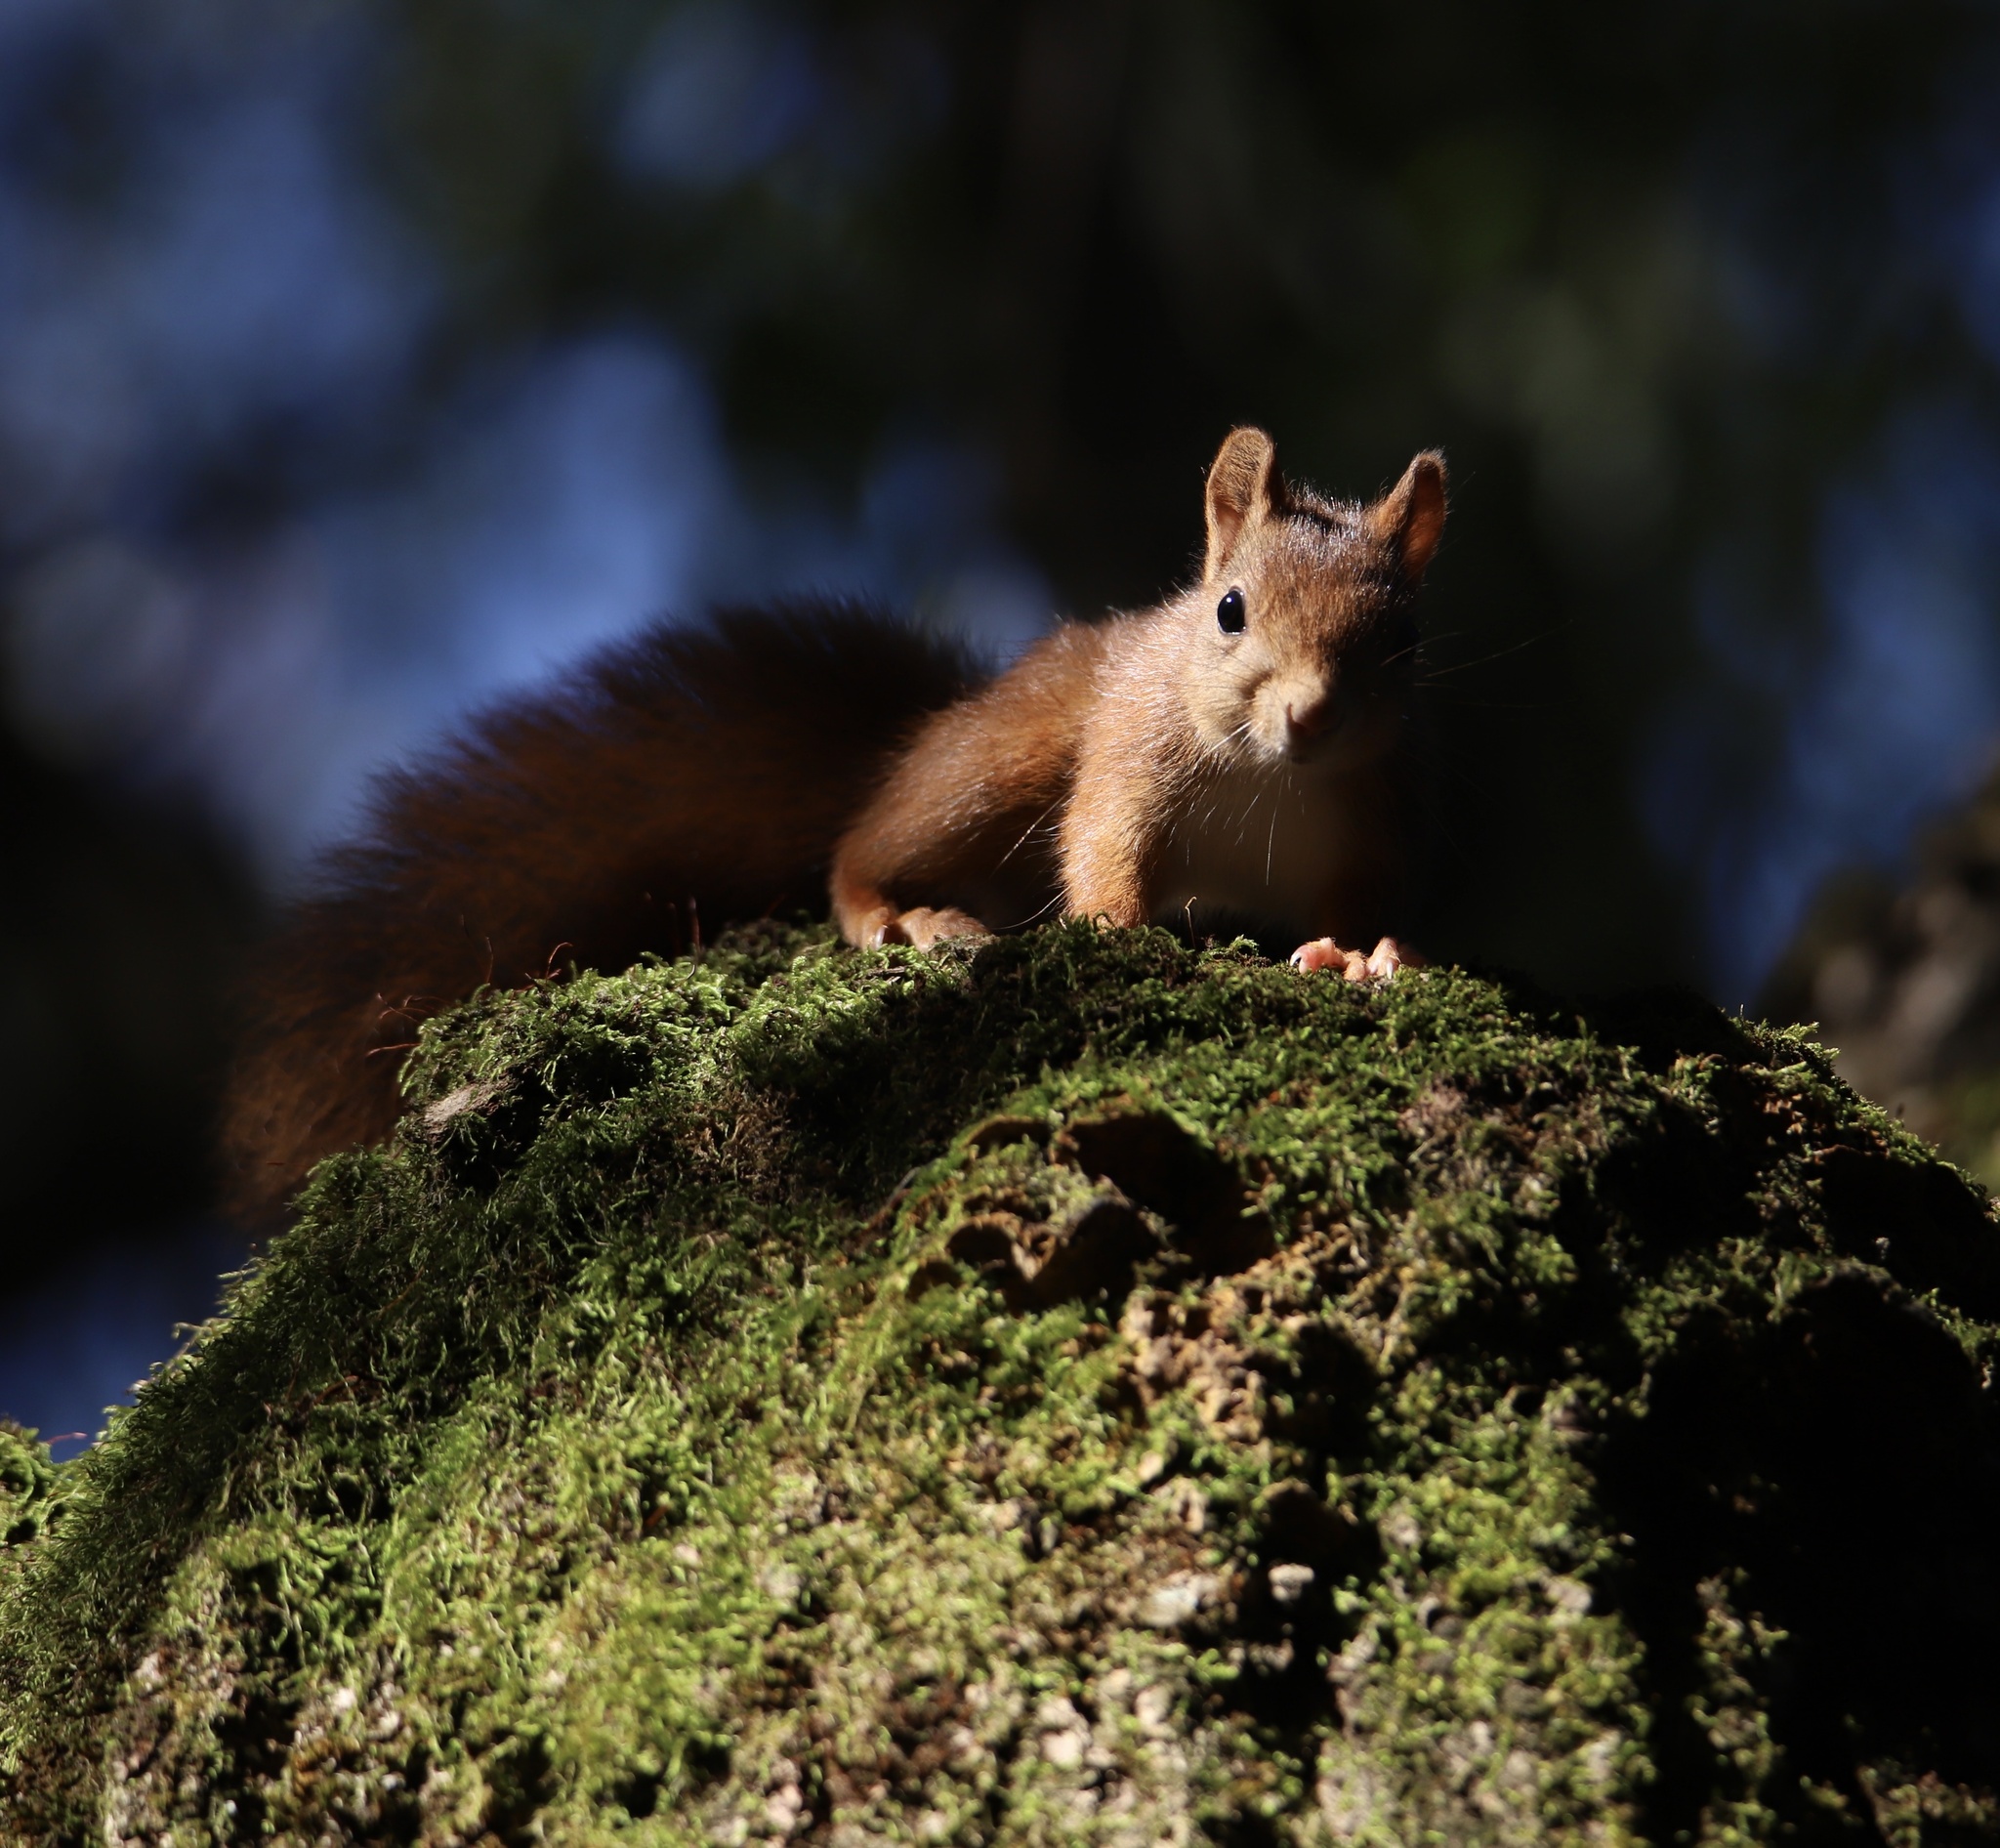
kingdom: Animalia
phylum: Chordata
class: Mammalia
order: Rodentia
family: Sciuridae
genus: Sciurus
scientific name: Sciurus vulgaris
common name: Eurasian red squirrel
